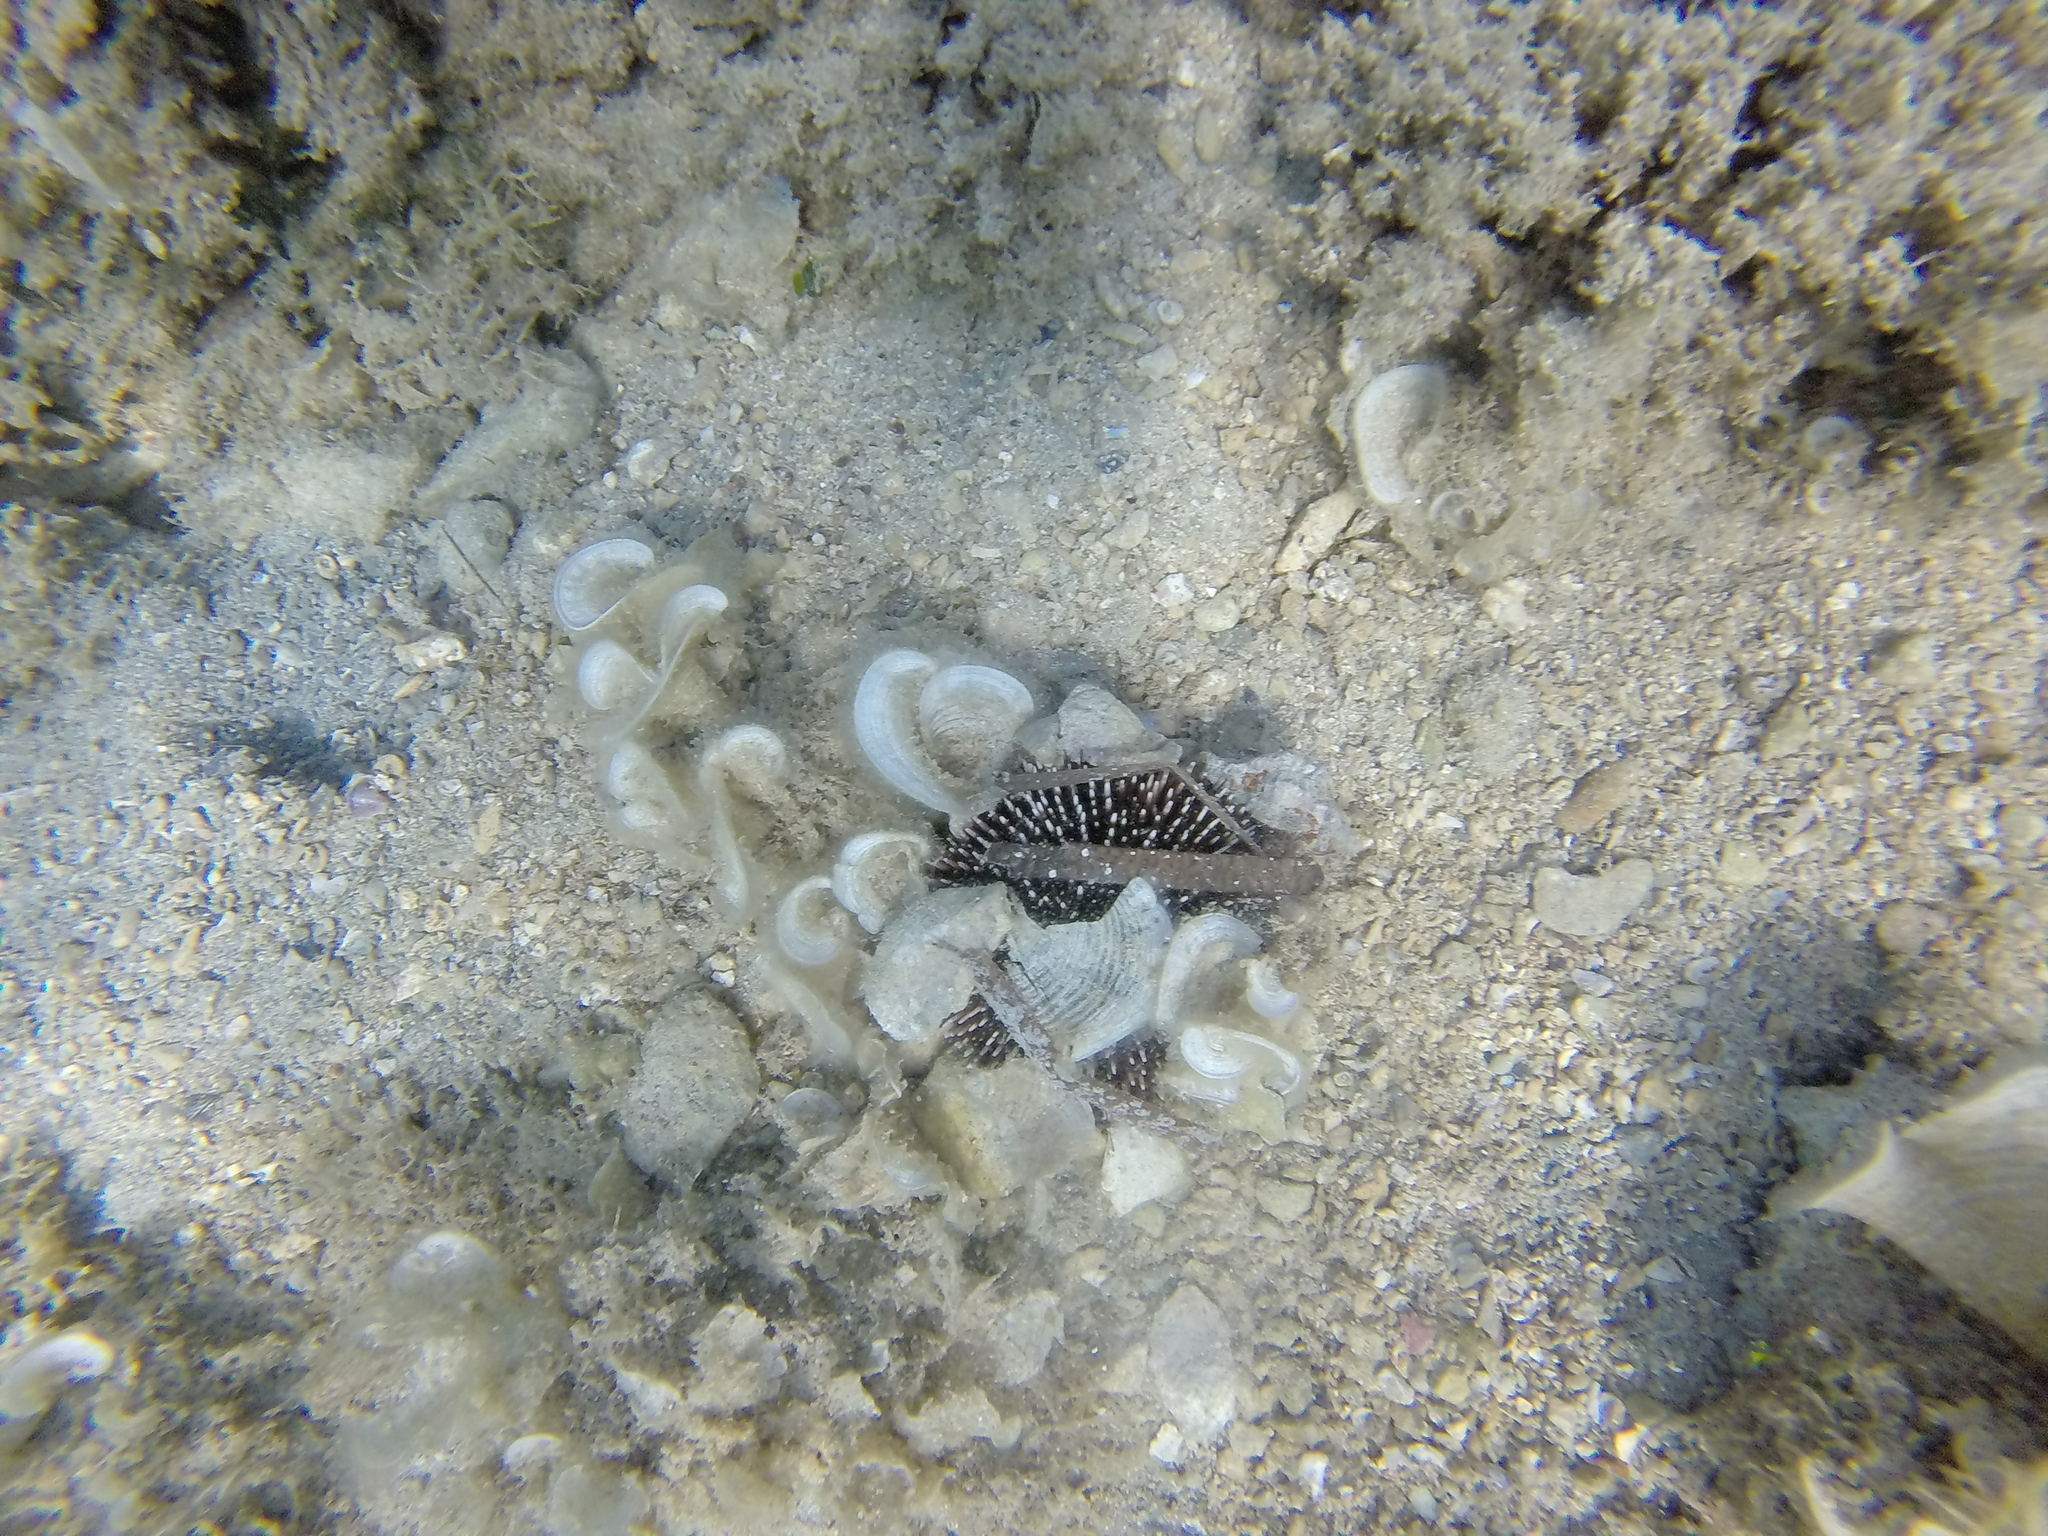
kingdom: Animalia
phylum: Echinodermata
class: Echinoidea
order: Camarodonta
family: Toxopneustidae
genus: Sphaerechinus
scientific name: Sphaerechinus granularis
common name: Violet sea urchin
